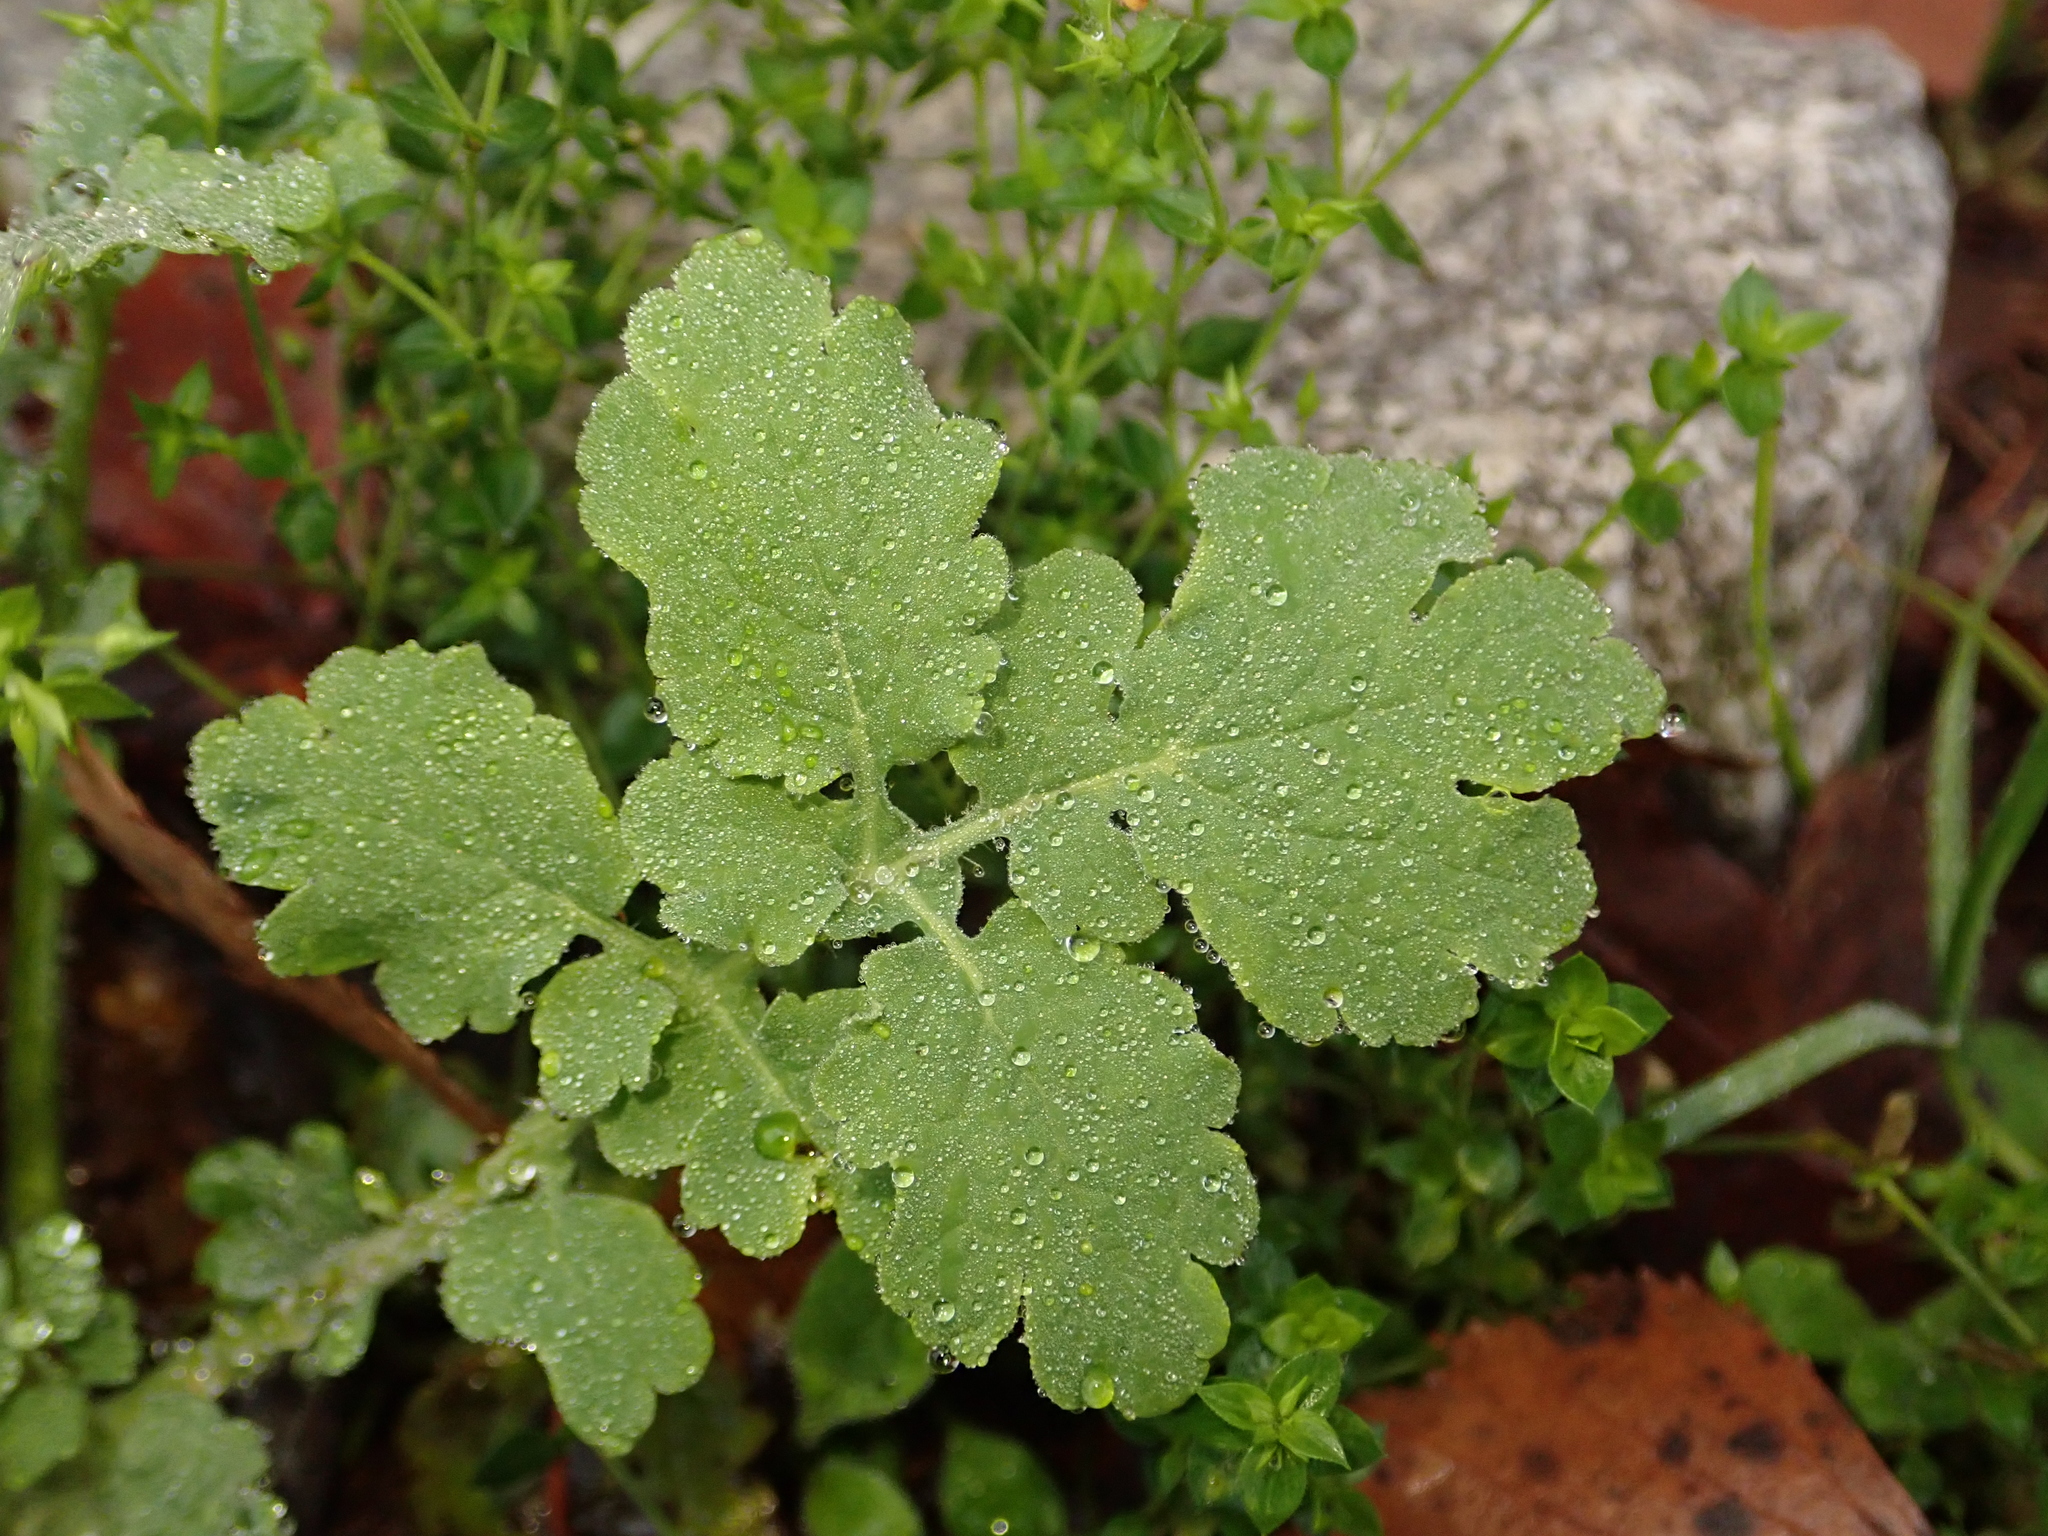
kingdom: Plantae
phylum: Tracheophyta
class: Magnoliopsida
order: Ranunculales
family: Papaveraceae
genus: Chelidonium
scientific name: Chelidonium majus
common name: Greater celandine
